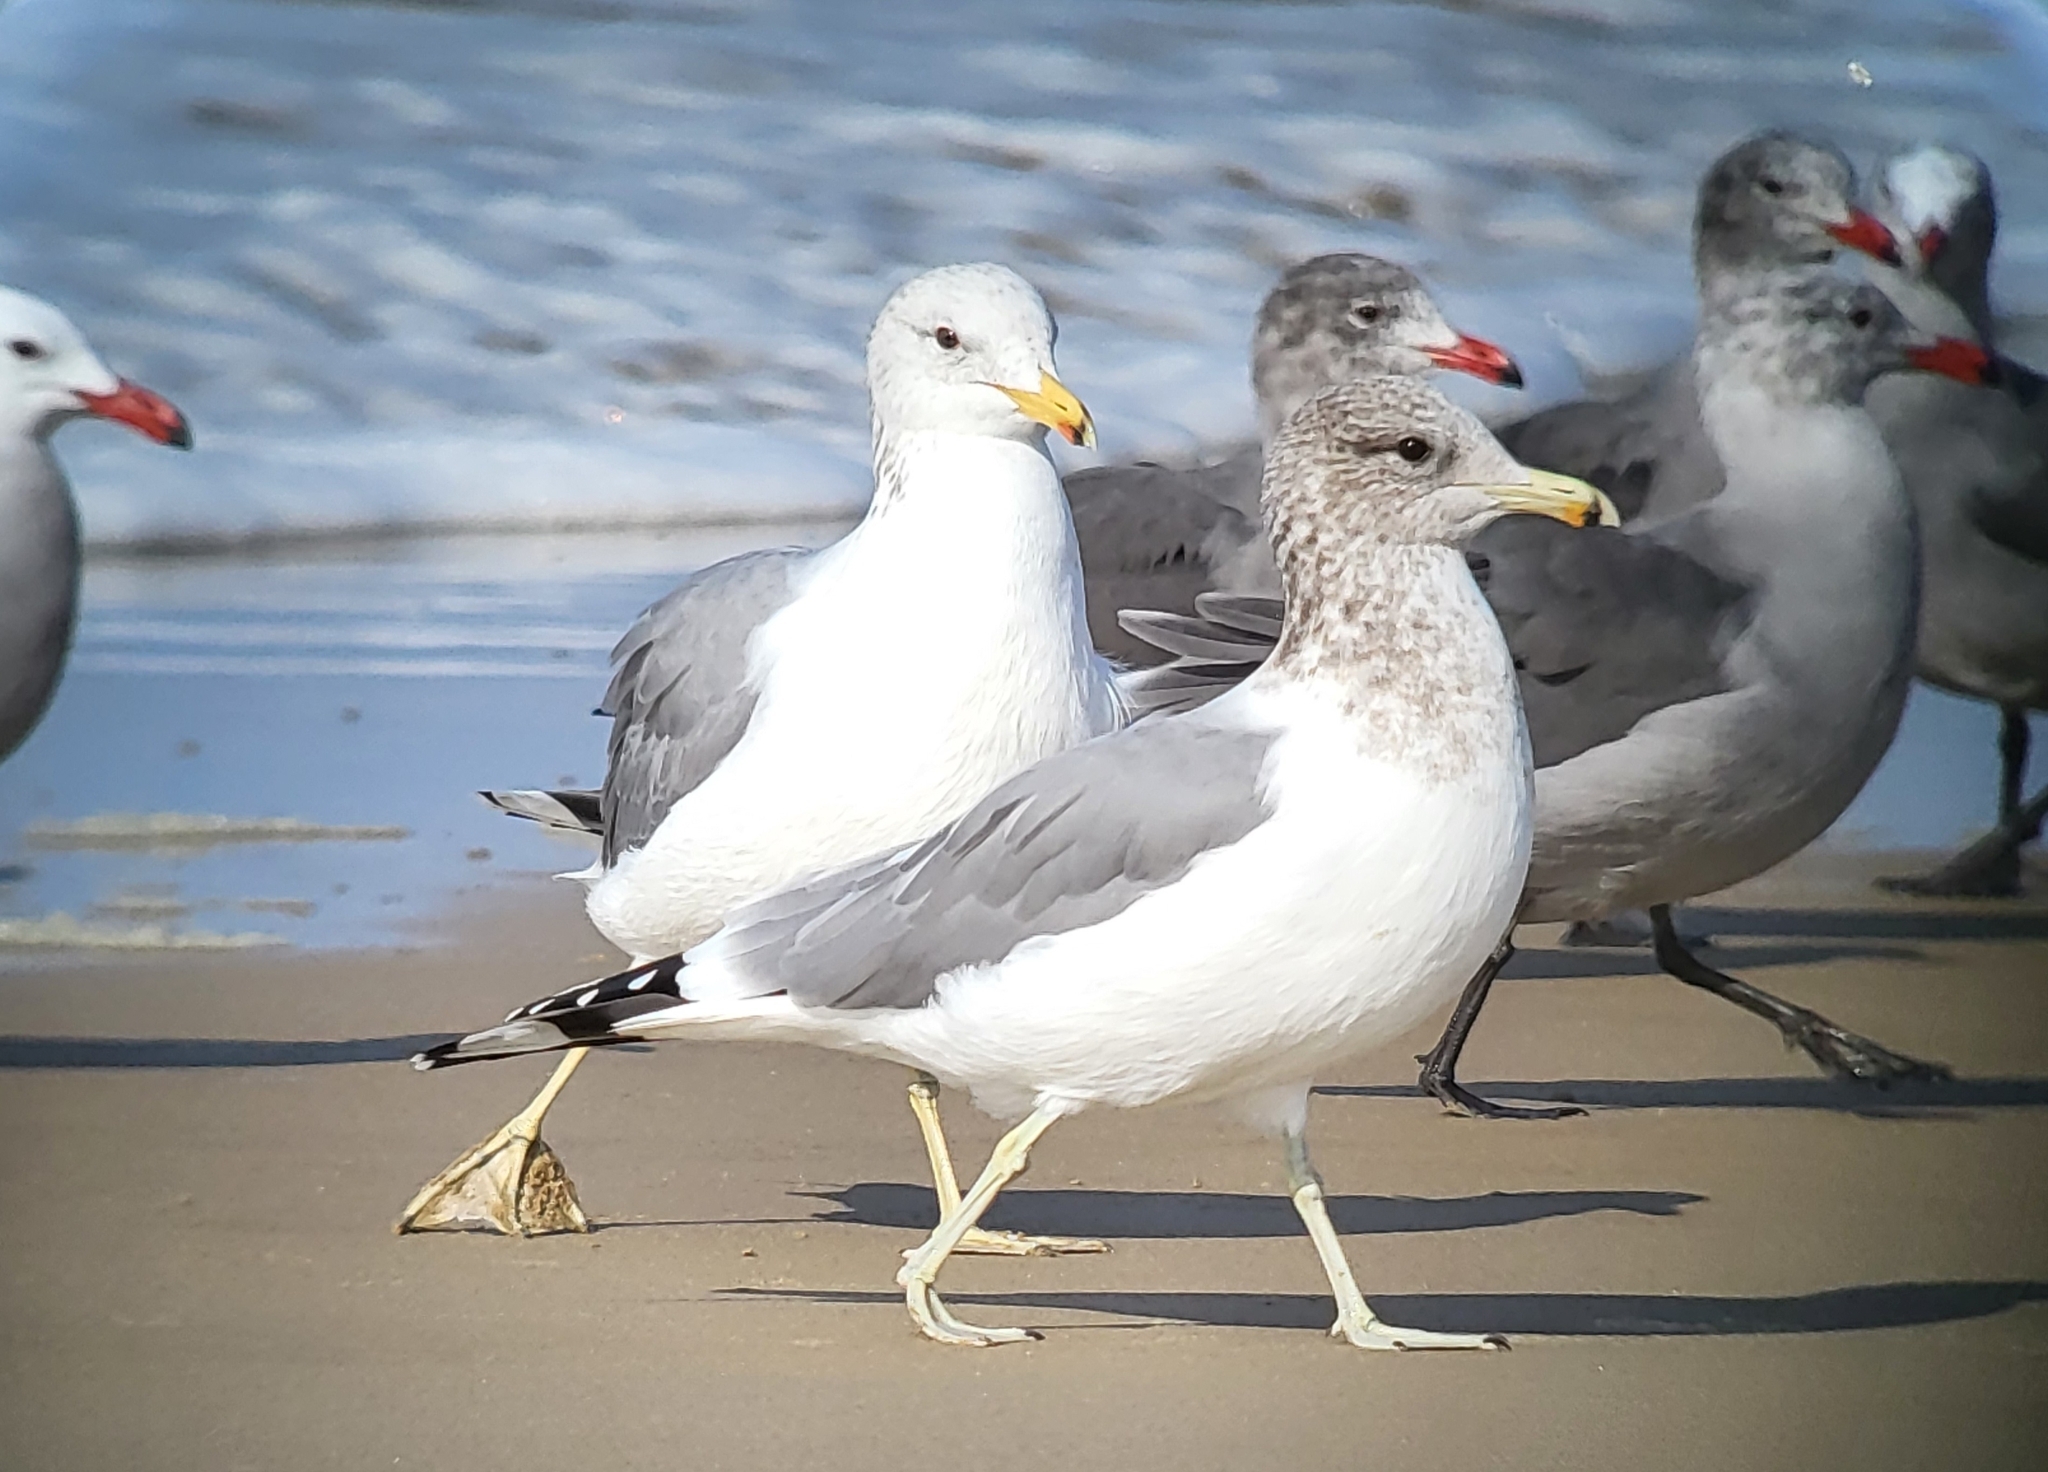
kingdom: Animalia
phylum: Chordata
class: Aves
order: Charadriiformes
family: Laridae
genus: Larus
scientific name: Larus californicus
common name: California gull
